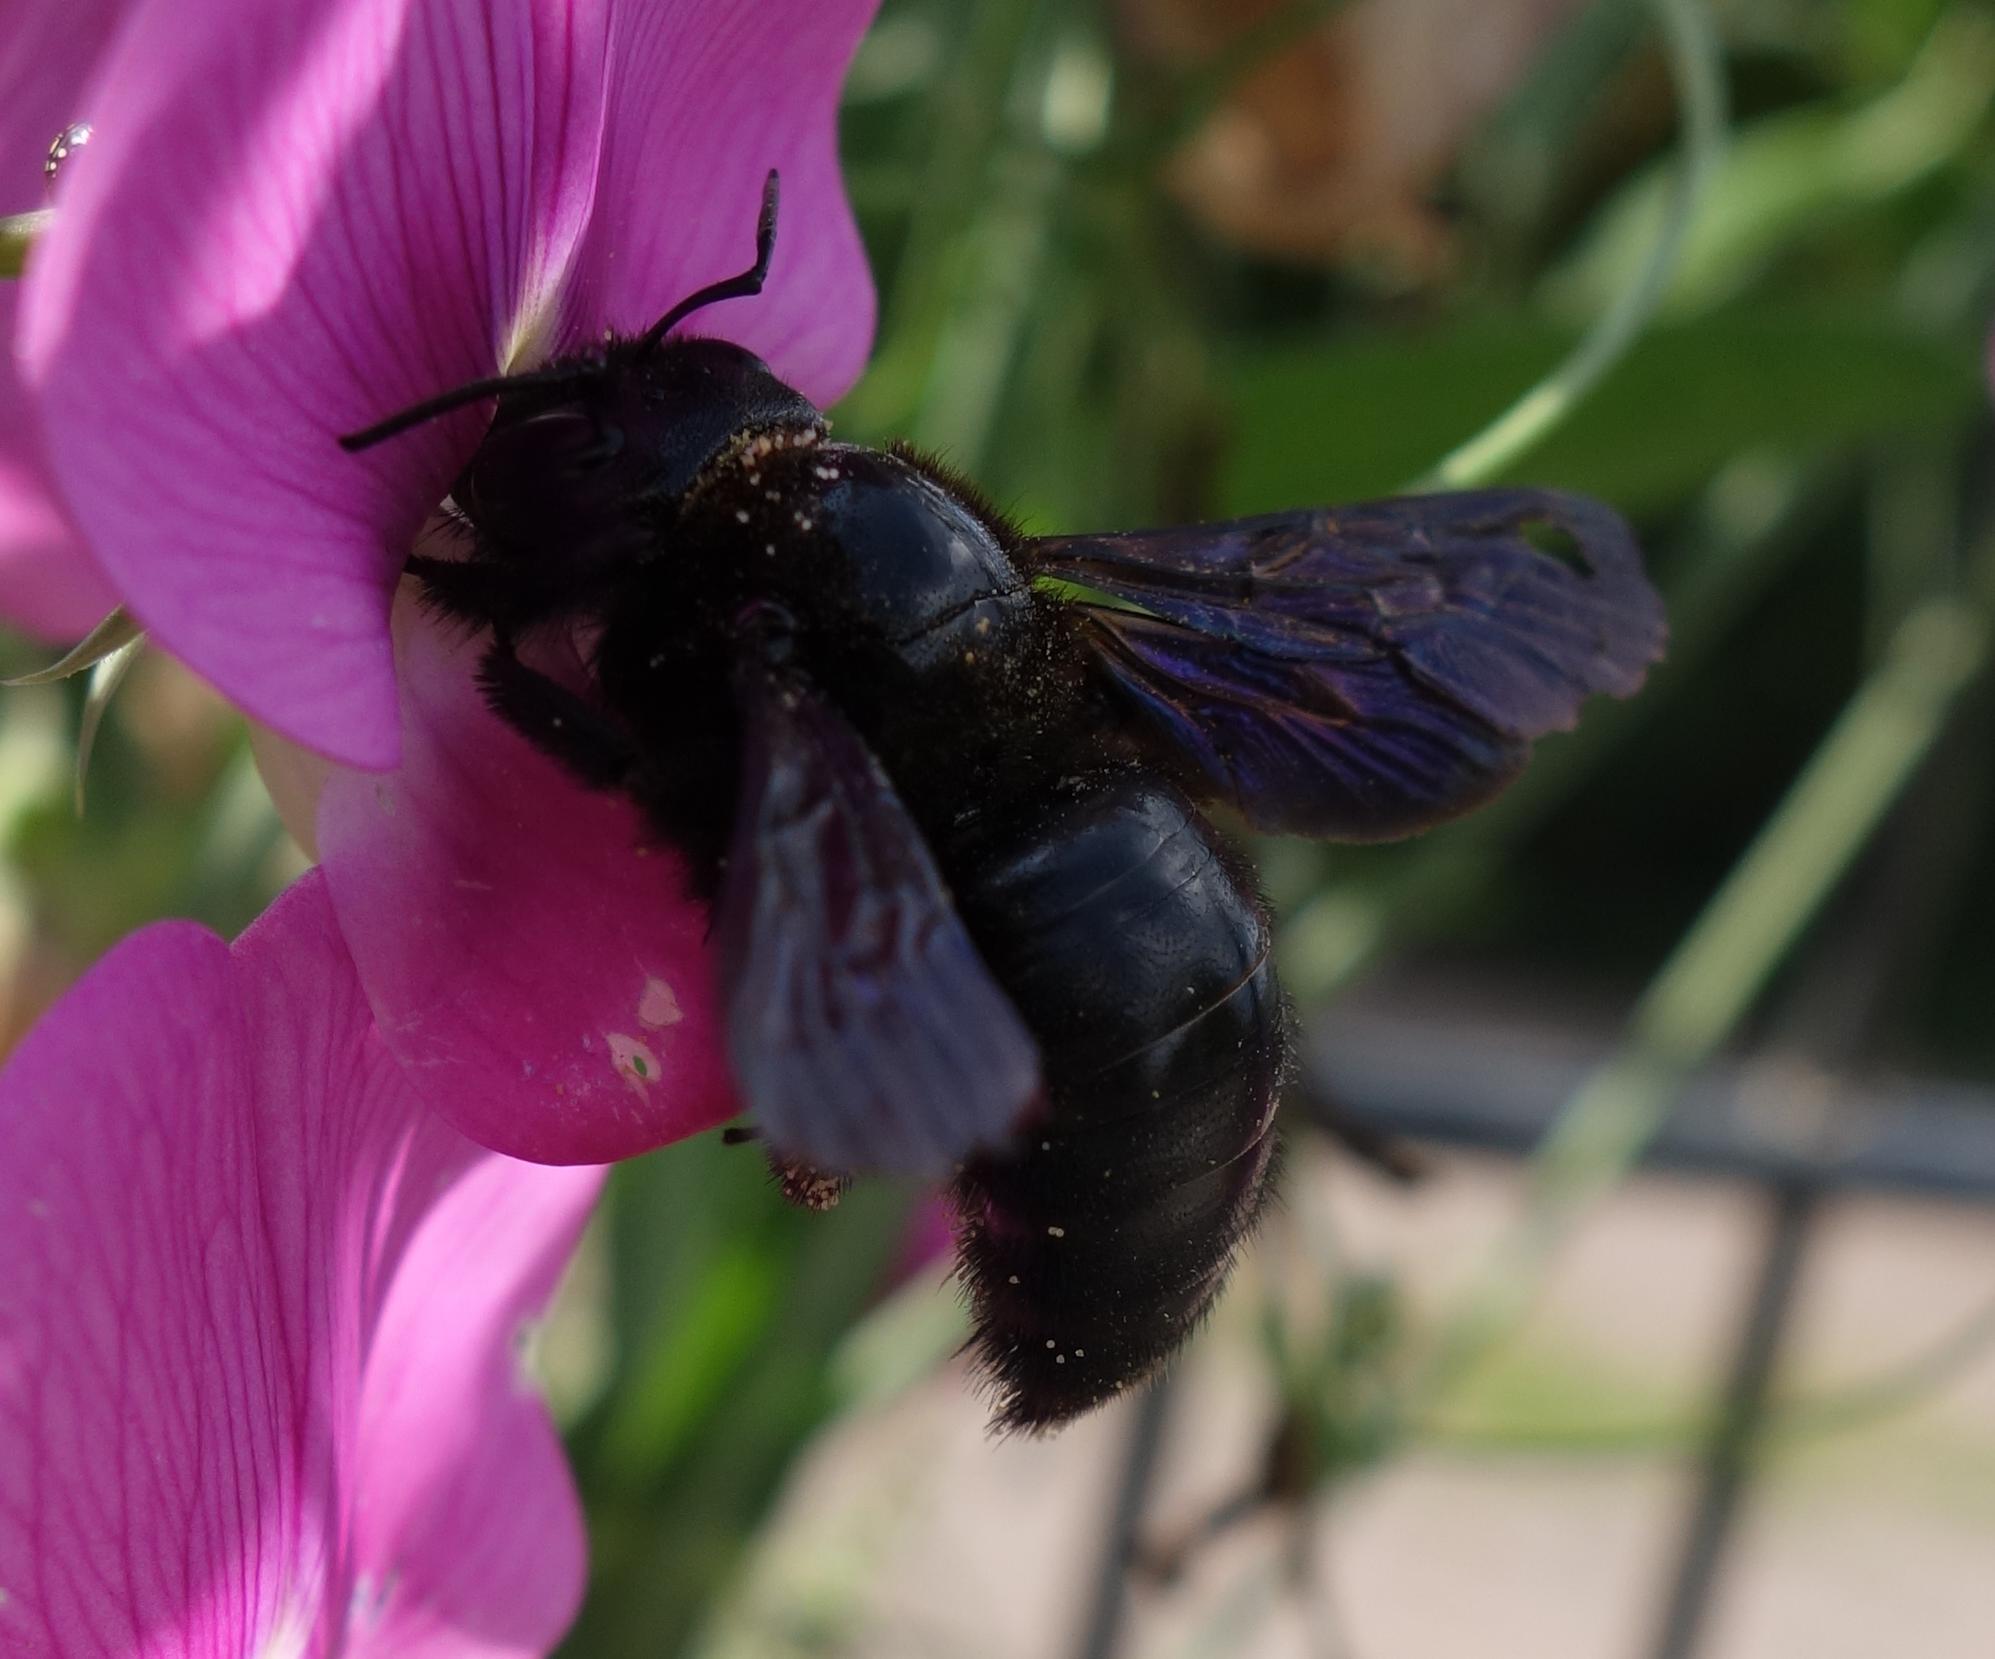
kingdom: Animalia
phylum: Arthropoda
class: Insecta
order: Hymenoptera
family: Apidae
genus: Xylocopa
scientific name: Xylocopa violacea
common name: Violet carpenter bee
